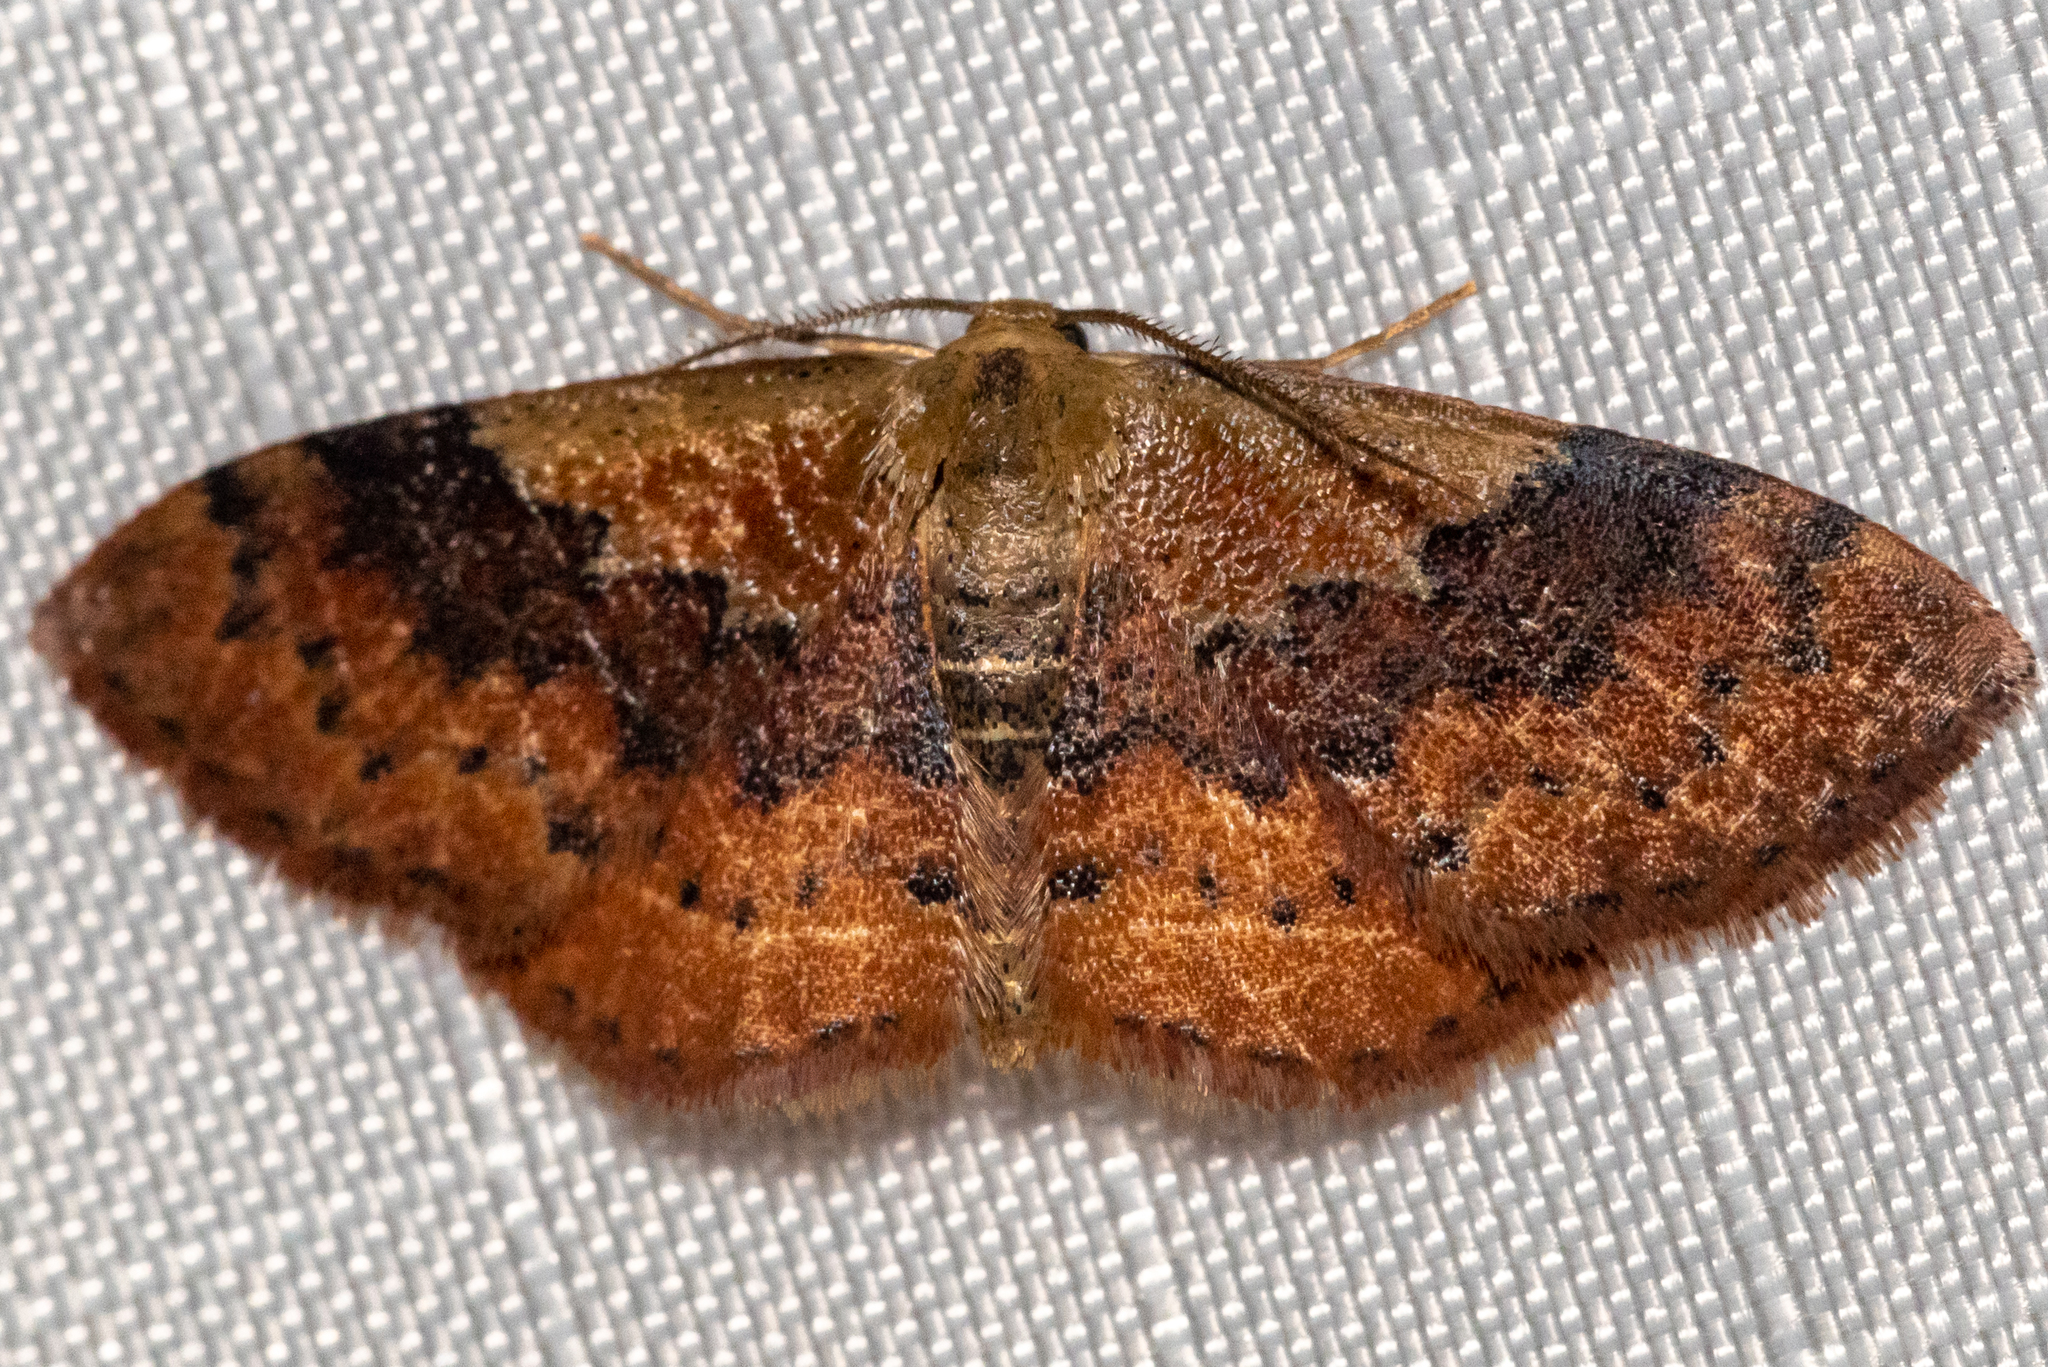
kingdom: Animalia
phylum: Arthropoda
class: Insecta
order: Lepidoptera
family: Geometridae
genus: Leptostales
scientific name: Leptostales ferruminaria
